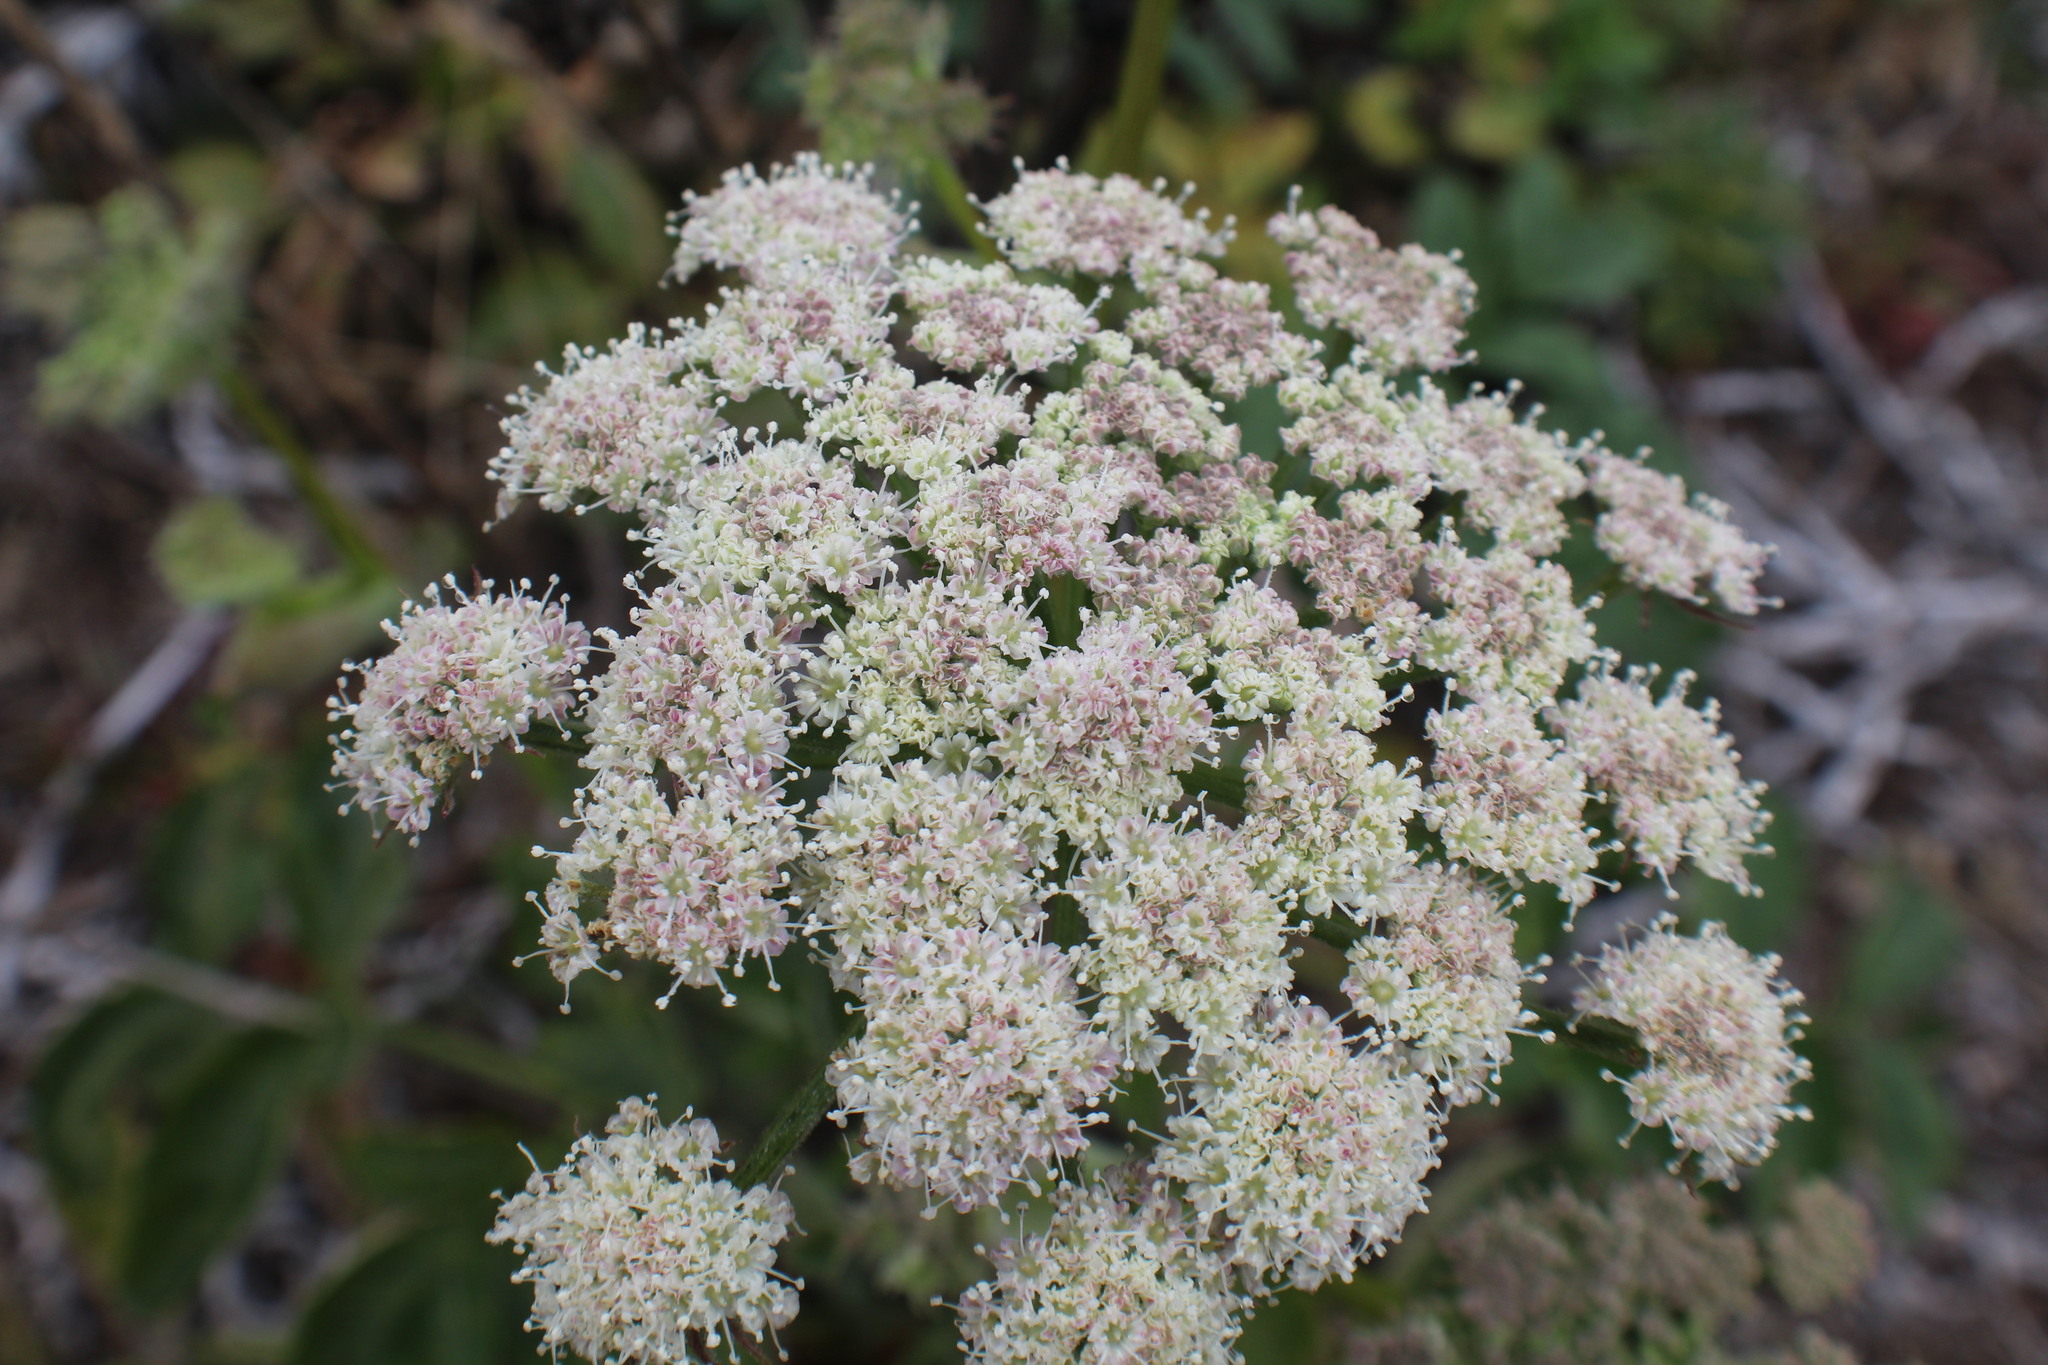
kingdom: Plantae
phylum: Tracheophyta
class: Magnoliopsida
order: Apiales
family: Apiaceae
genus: Angelica
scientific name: Angelica hendersonii
